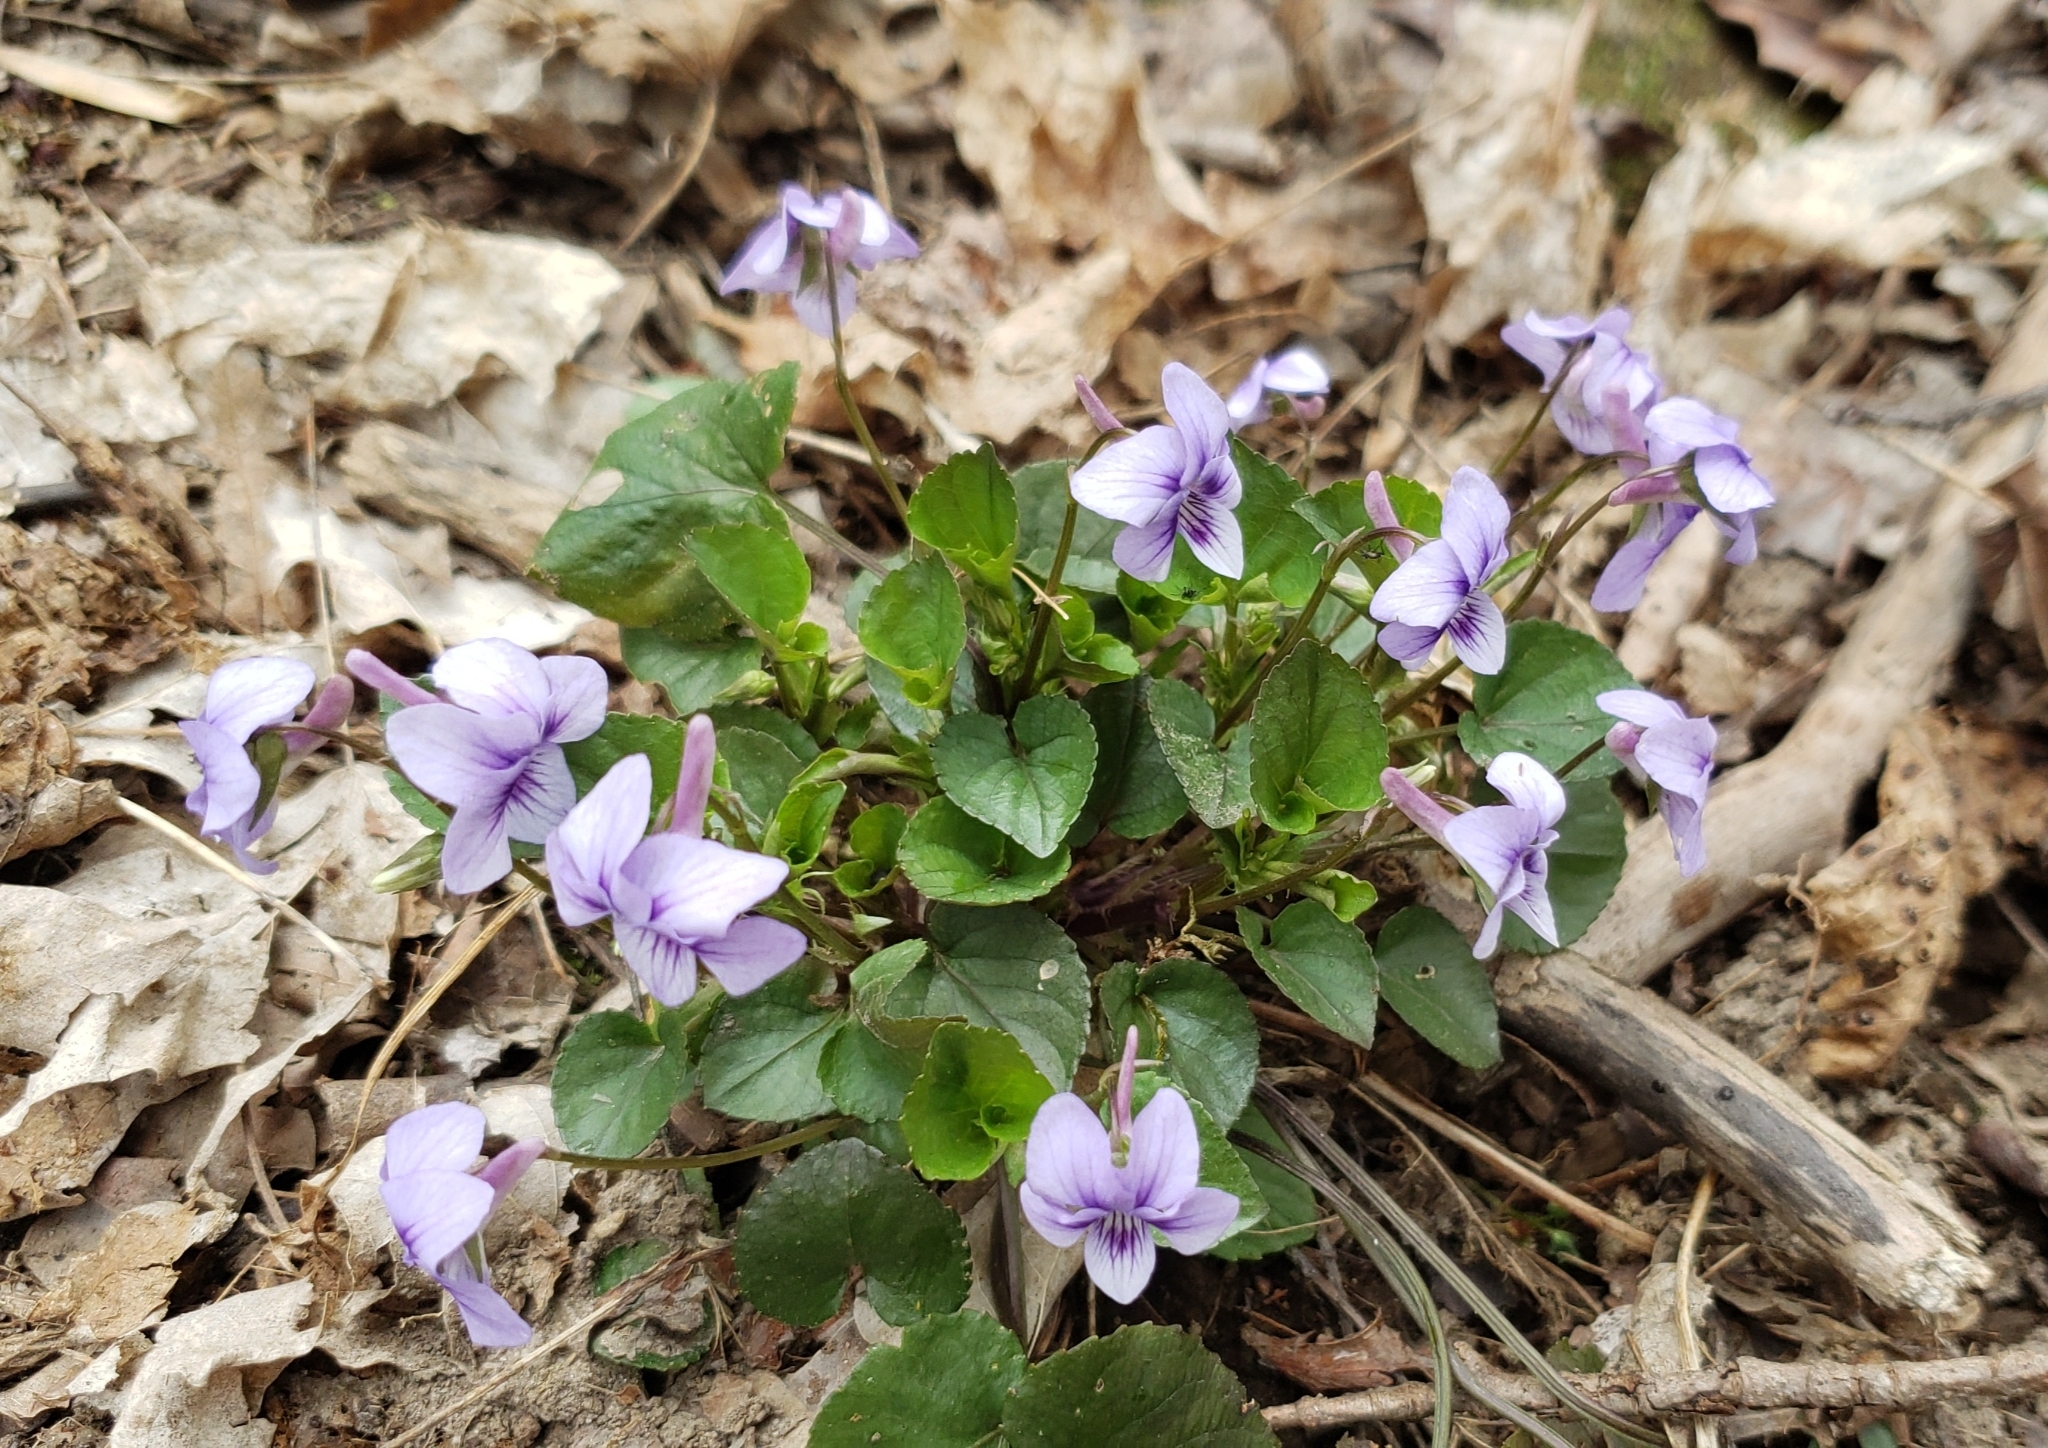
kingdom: Plantae
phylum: Tracheophyta
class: Magnoliopsida
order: Malpighiales
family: Violaceae
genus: Viola
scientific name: Viola rostrata
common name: Long-spur violet
